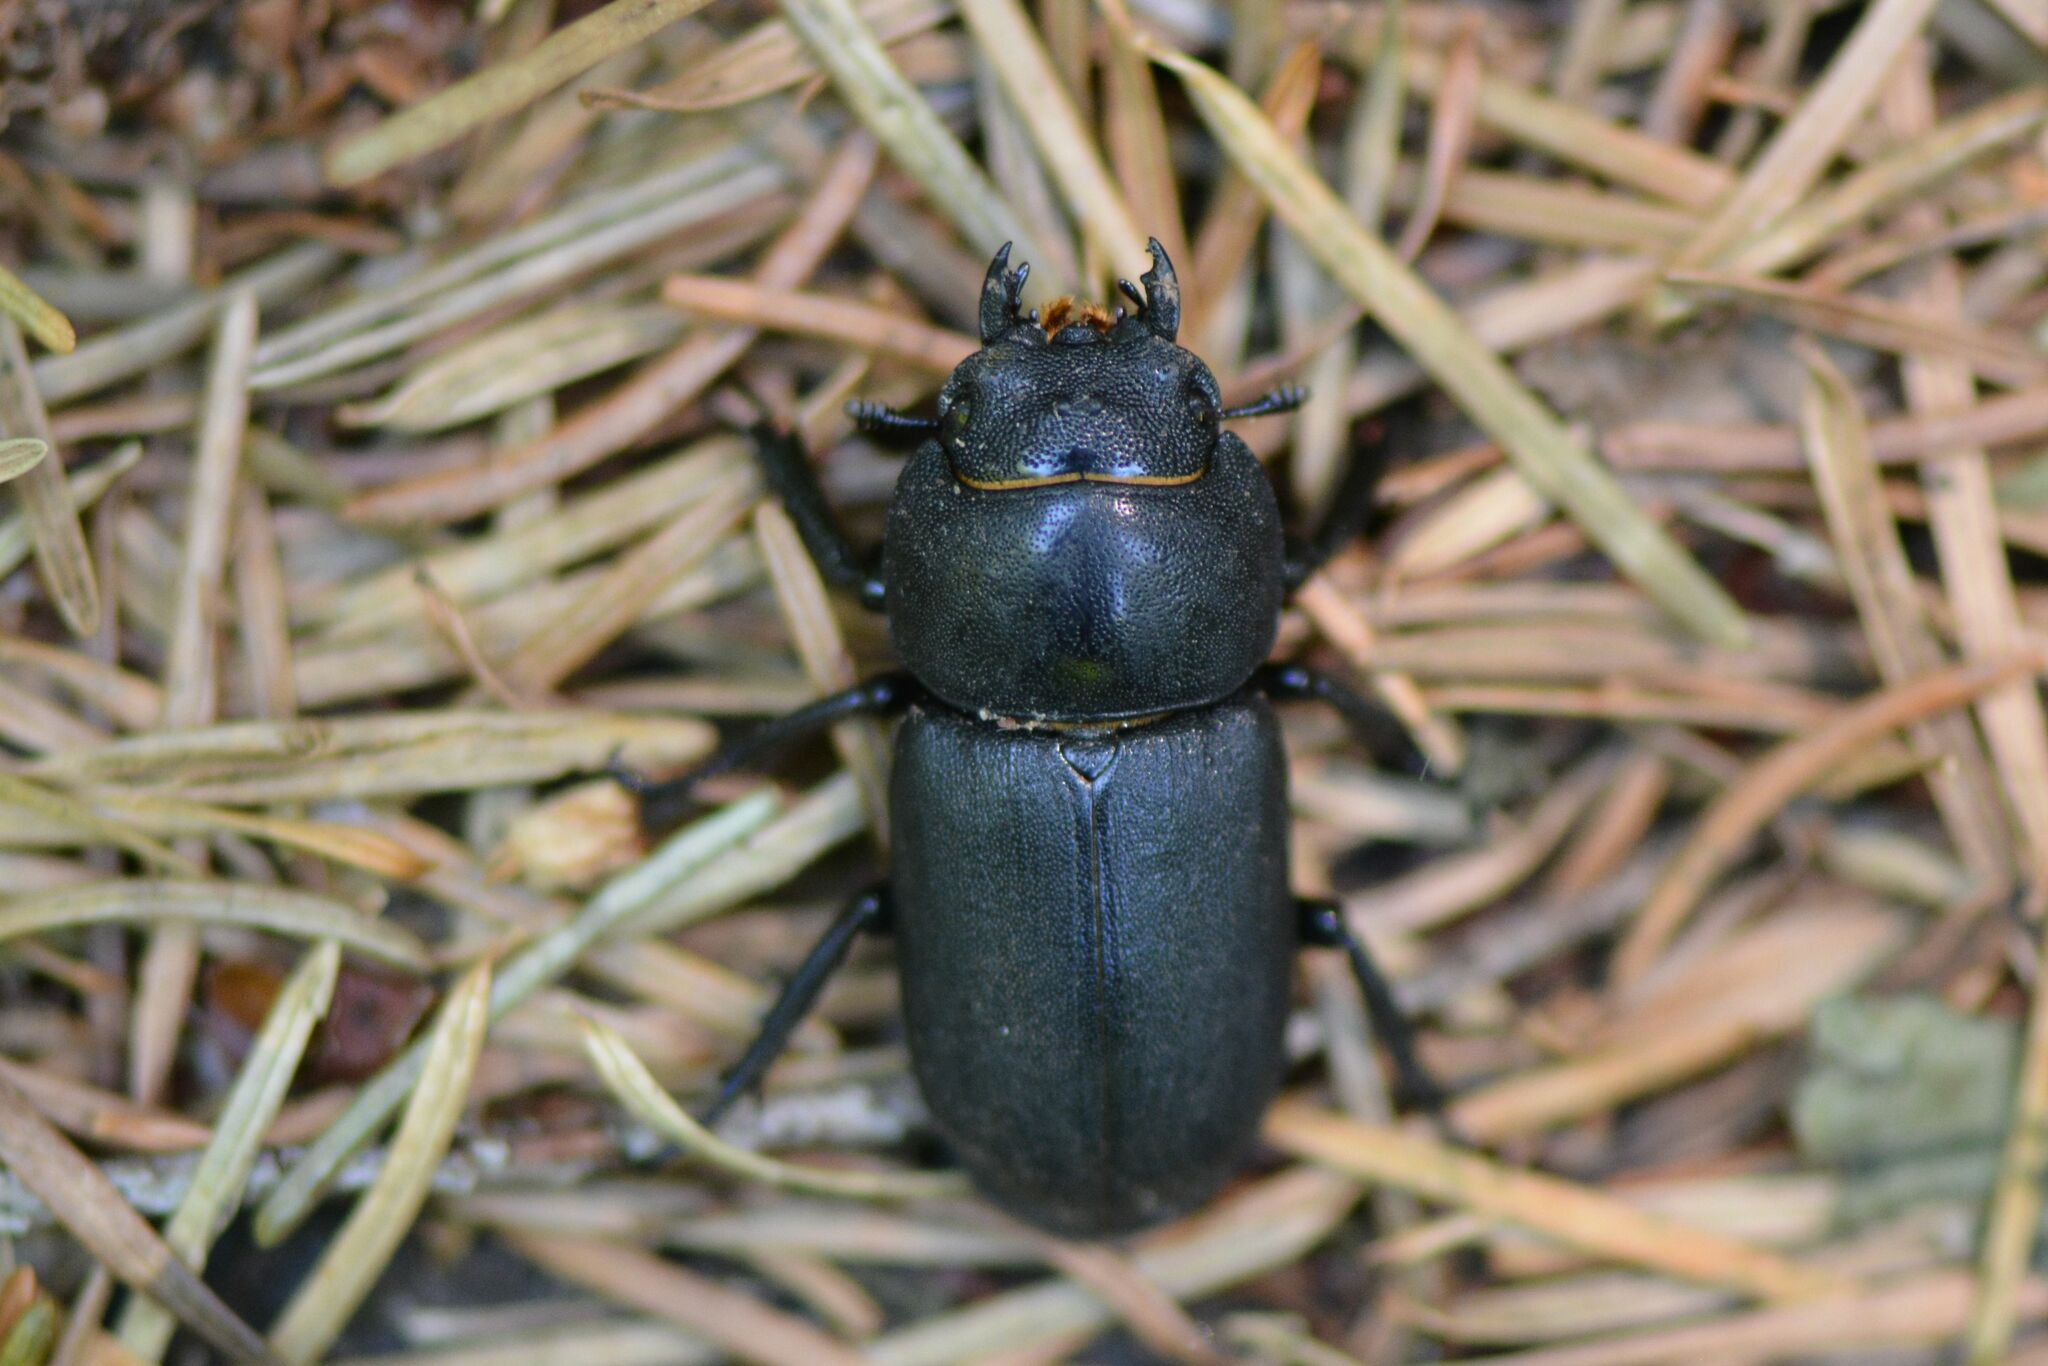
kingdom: Animalia
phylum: Arthropoda
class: Insecta
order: Coleoptera
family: Lucanidae
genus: Dorcus
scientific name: Dorcus parallelipipedus
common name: Lesser stag beetle
